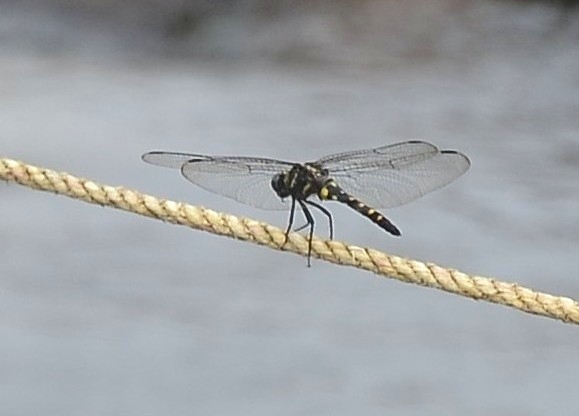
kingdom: Animalia
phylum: Arthropoda
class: Insecta
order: Odonata
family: Libellulidae
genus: Onychothemis
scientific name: Onychothemis testacea
